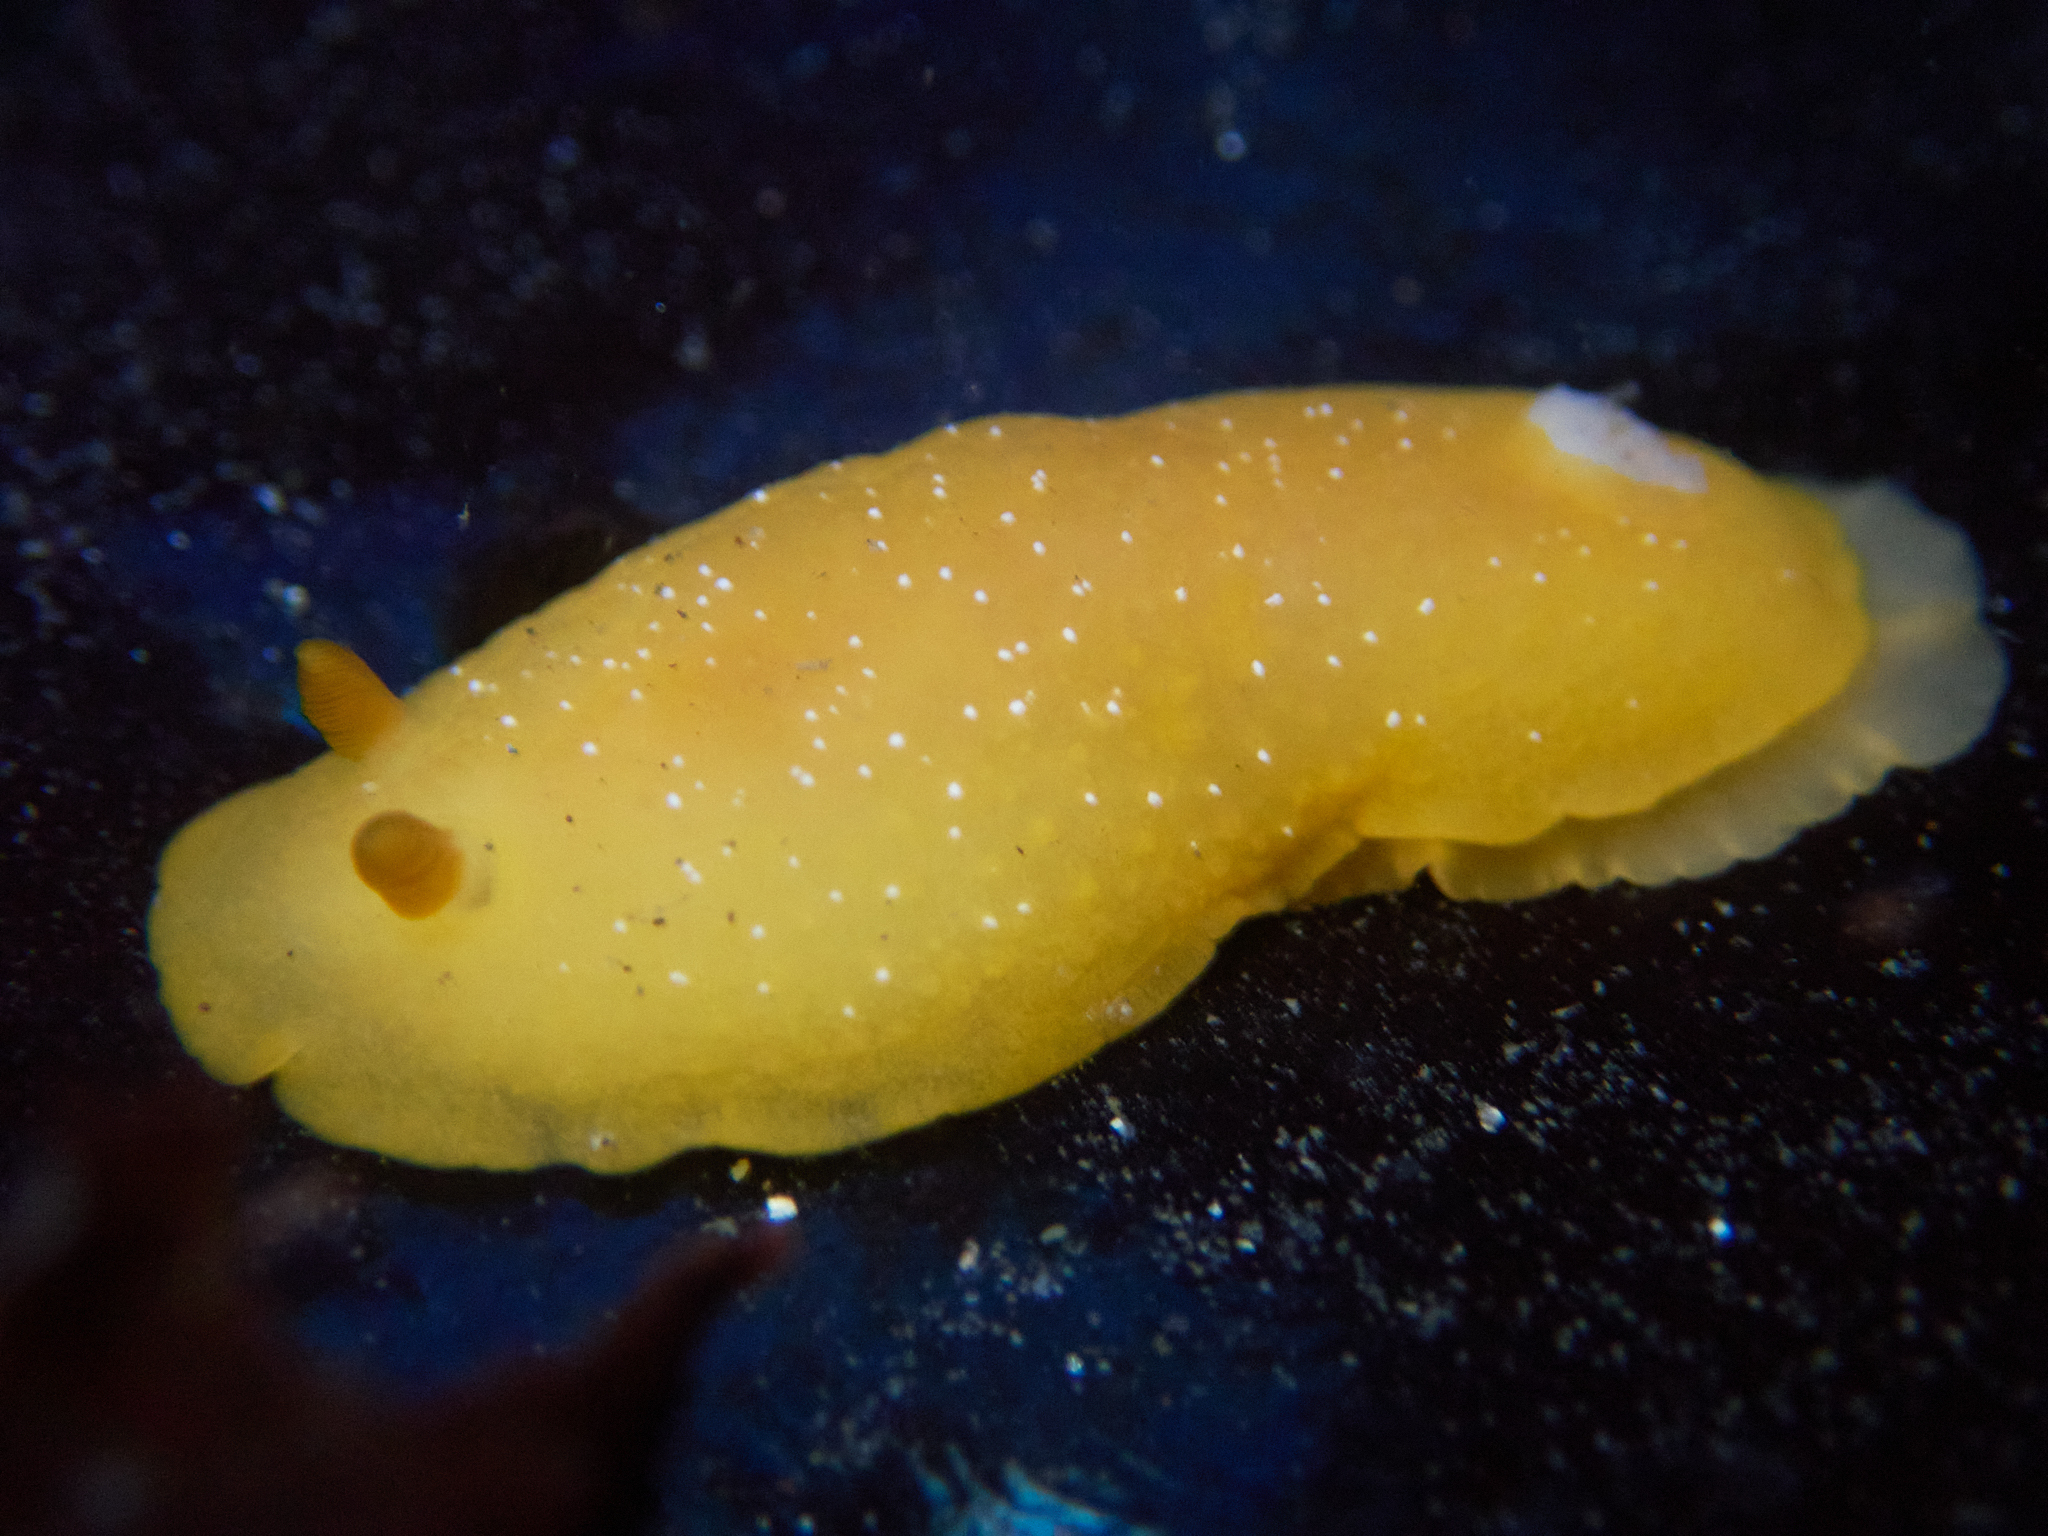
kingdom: Animalia
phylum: Mollusca
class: Gastropoda
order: Nudibranchia
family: Dendrodorididae
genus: Doriopsilla
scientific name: Doriopsilla fulva
